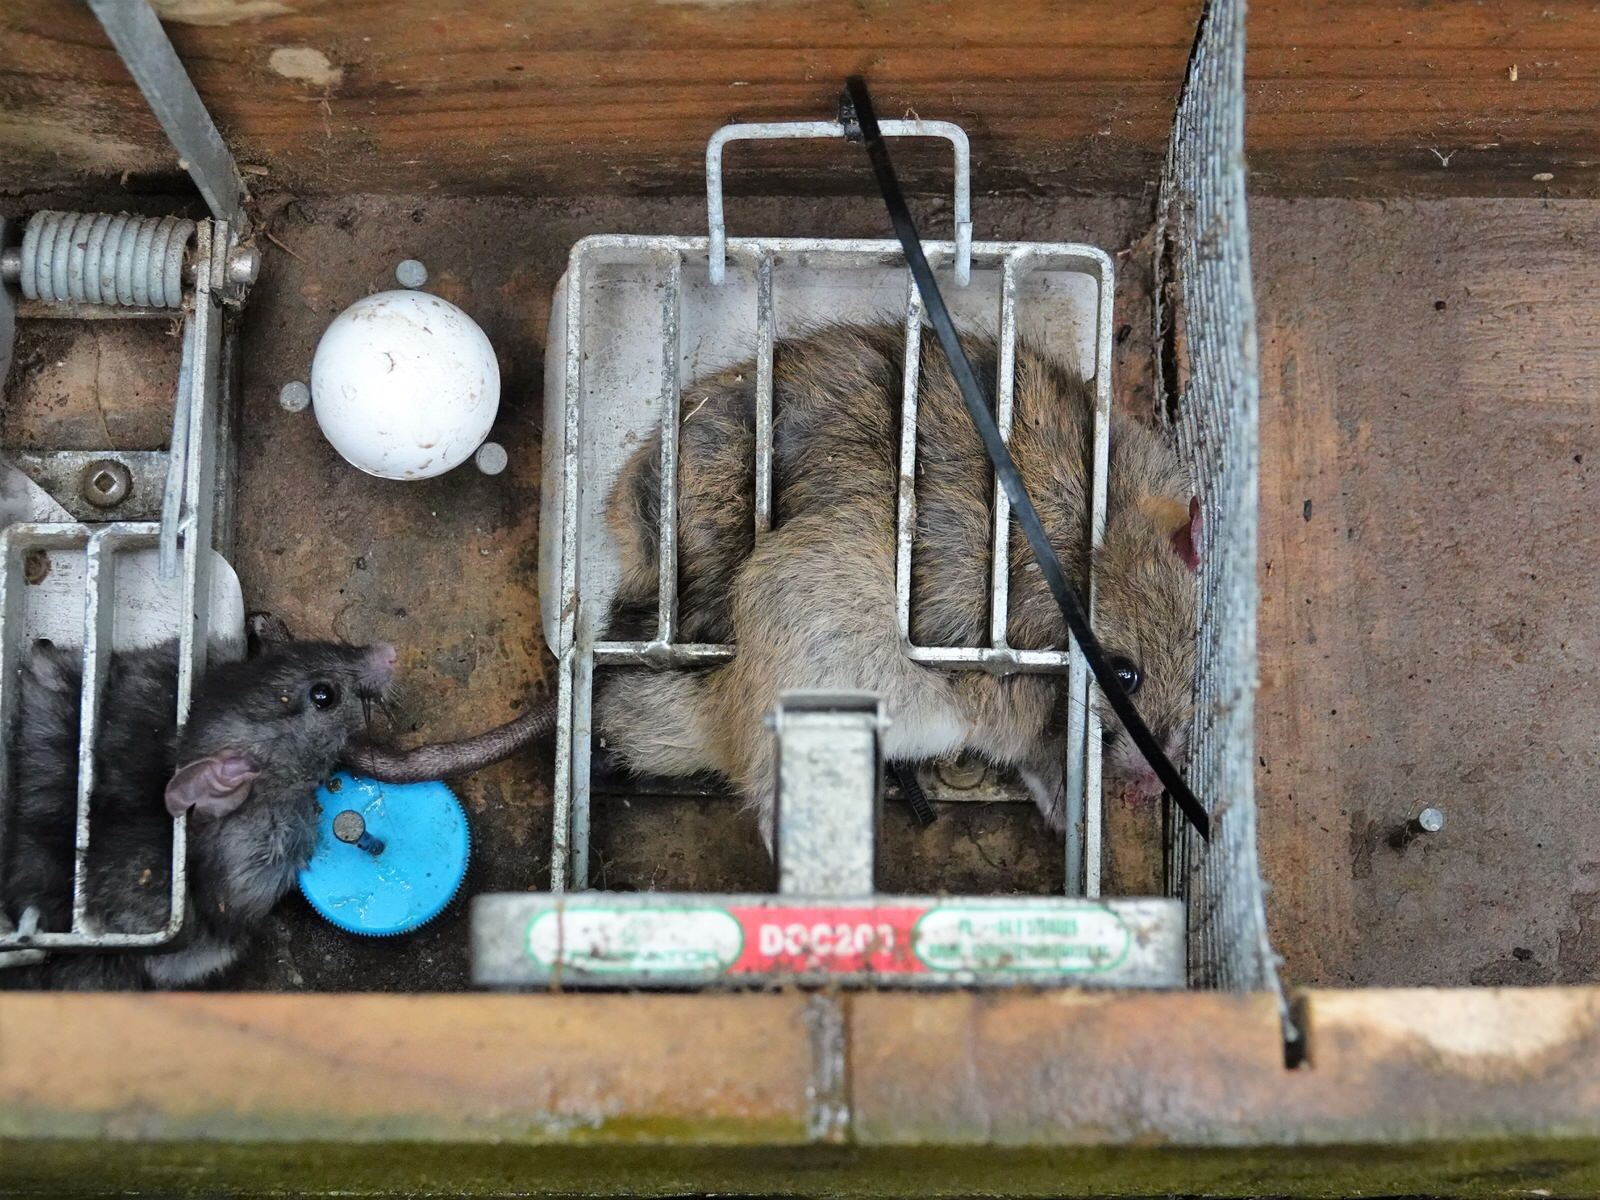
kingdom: Animalia
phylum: Chordata
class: Mammalia
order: Rodentia
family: Muridae
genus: Rattus
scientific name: Rattus norvegicus
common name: Brown rat
